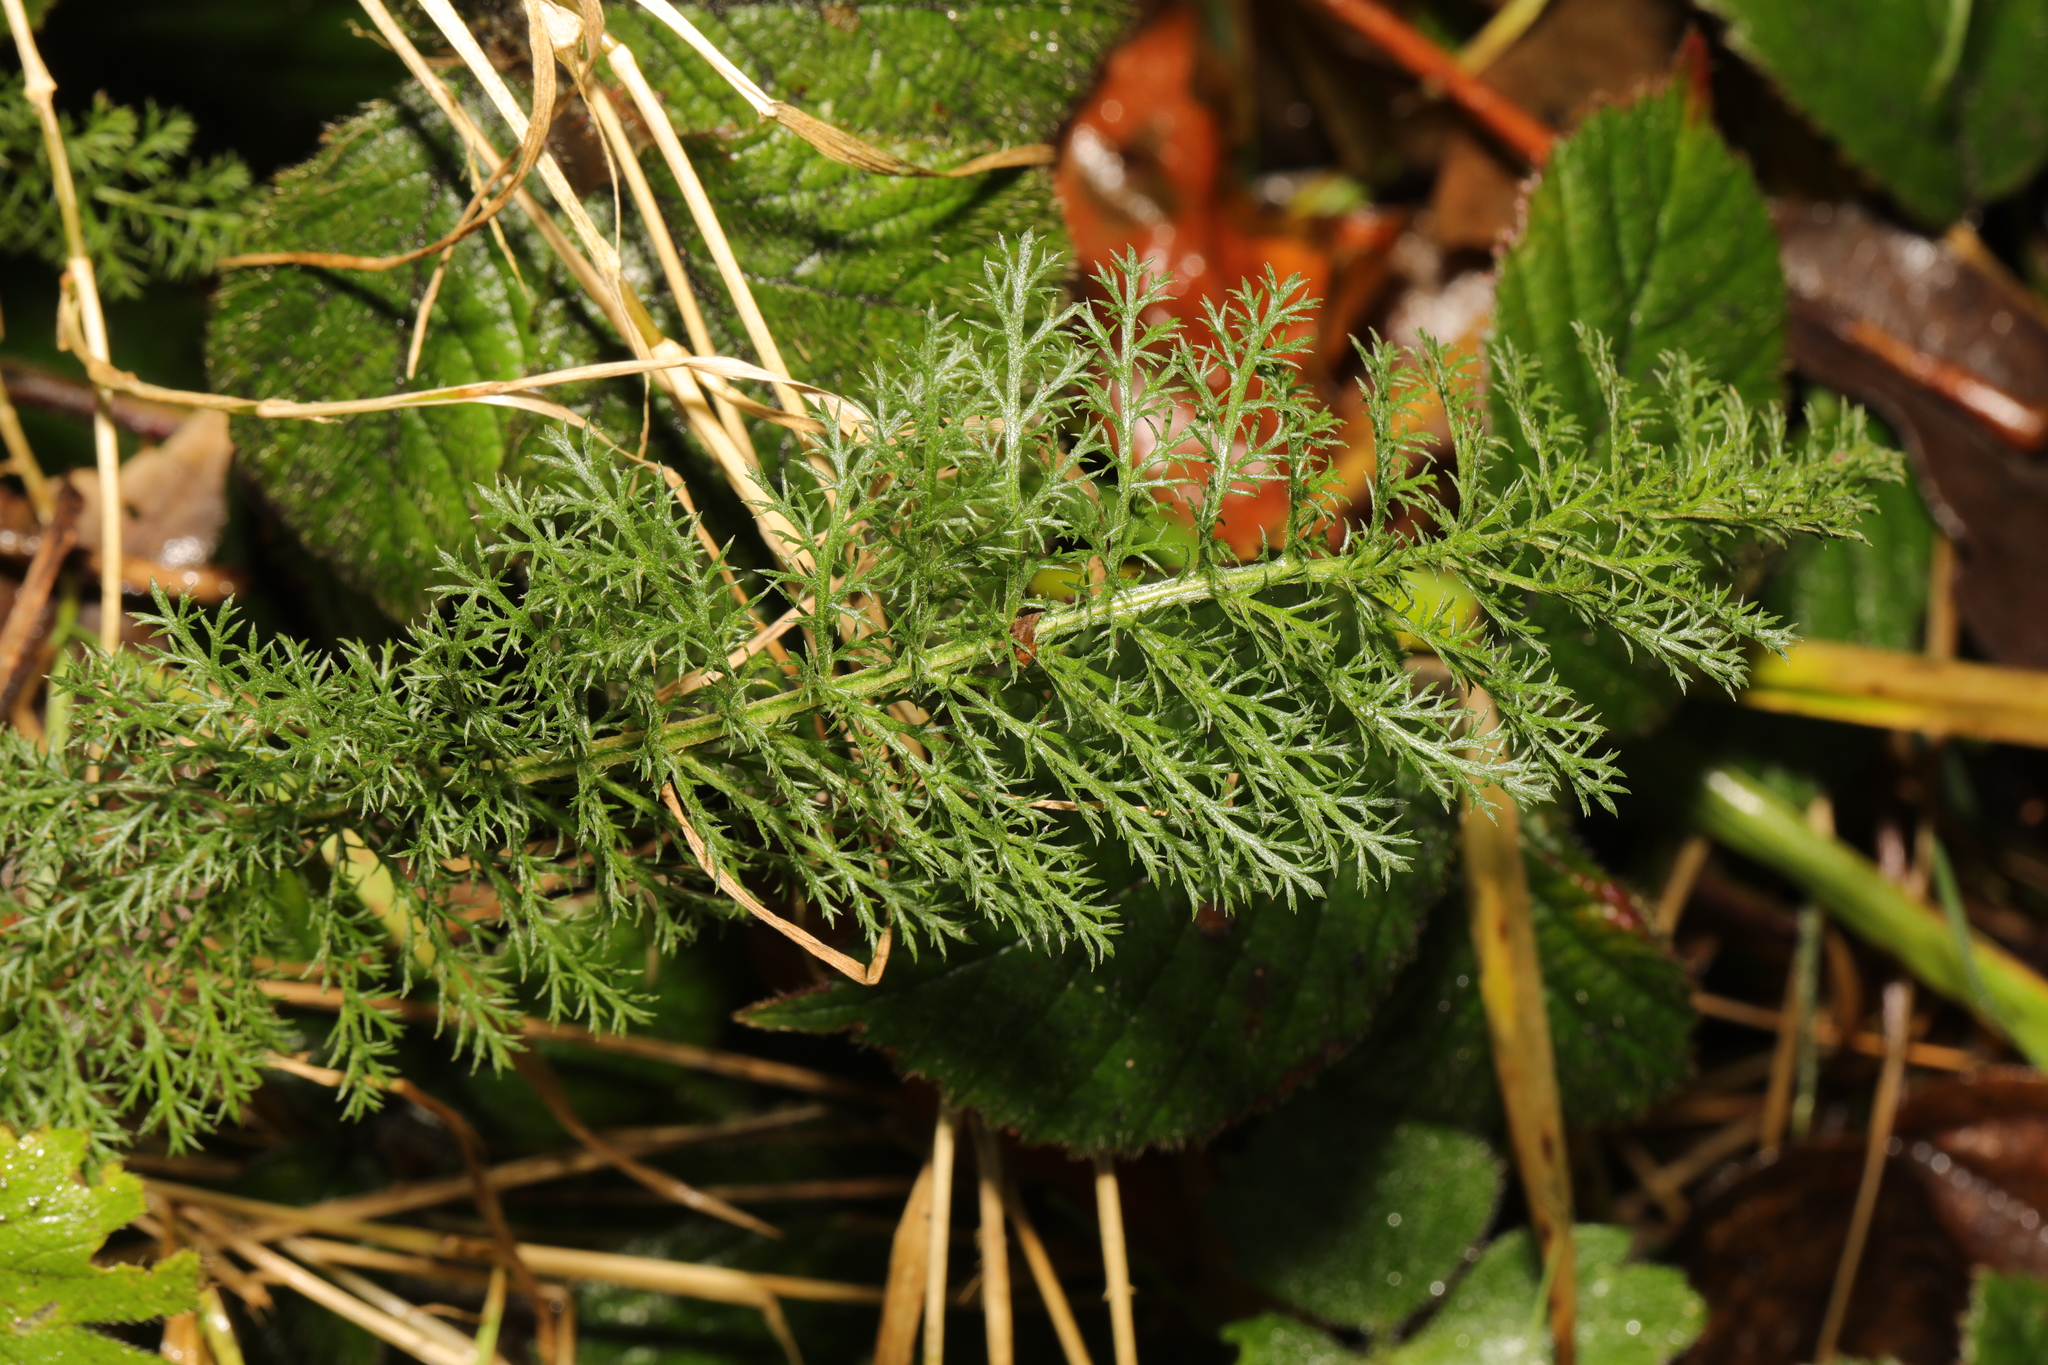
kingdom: Plantae
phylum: Tracheophyta
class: Magnoliopsida
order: Asterales
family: Asteraceae
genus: Achillea
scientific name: Achillea millefolium
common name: Yarrow
